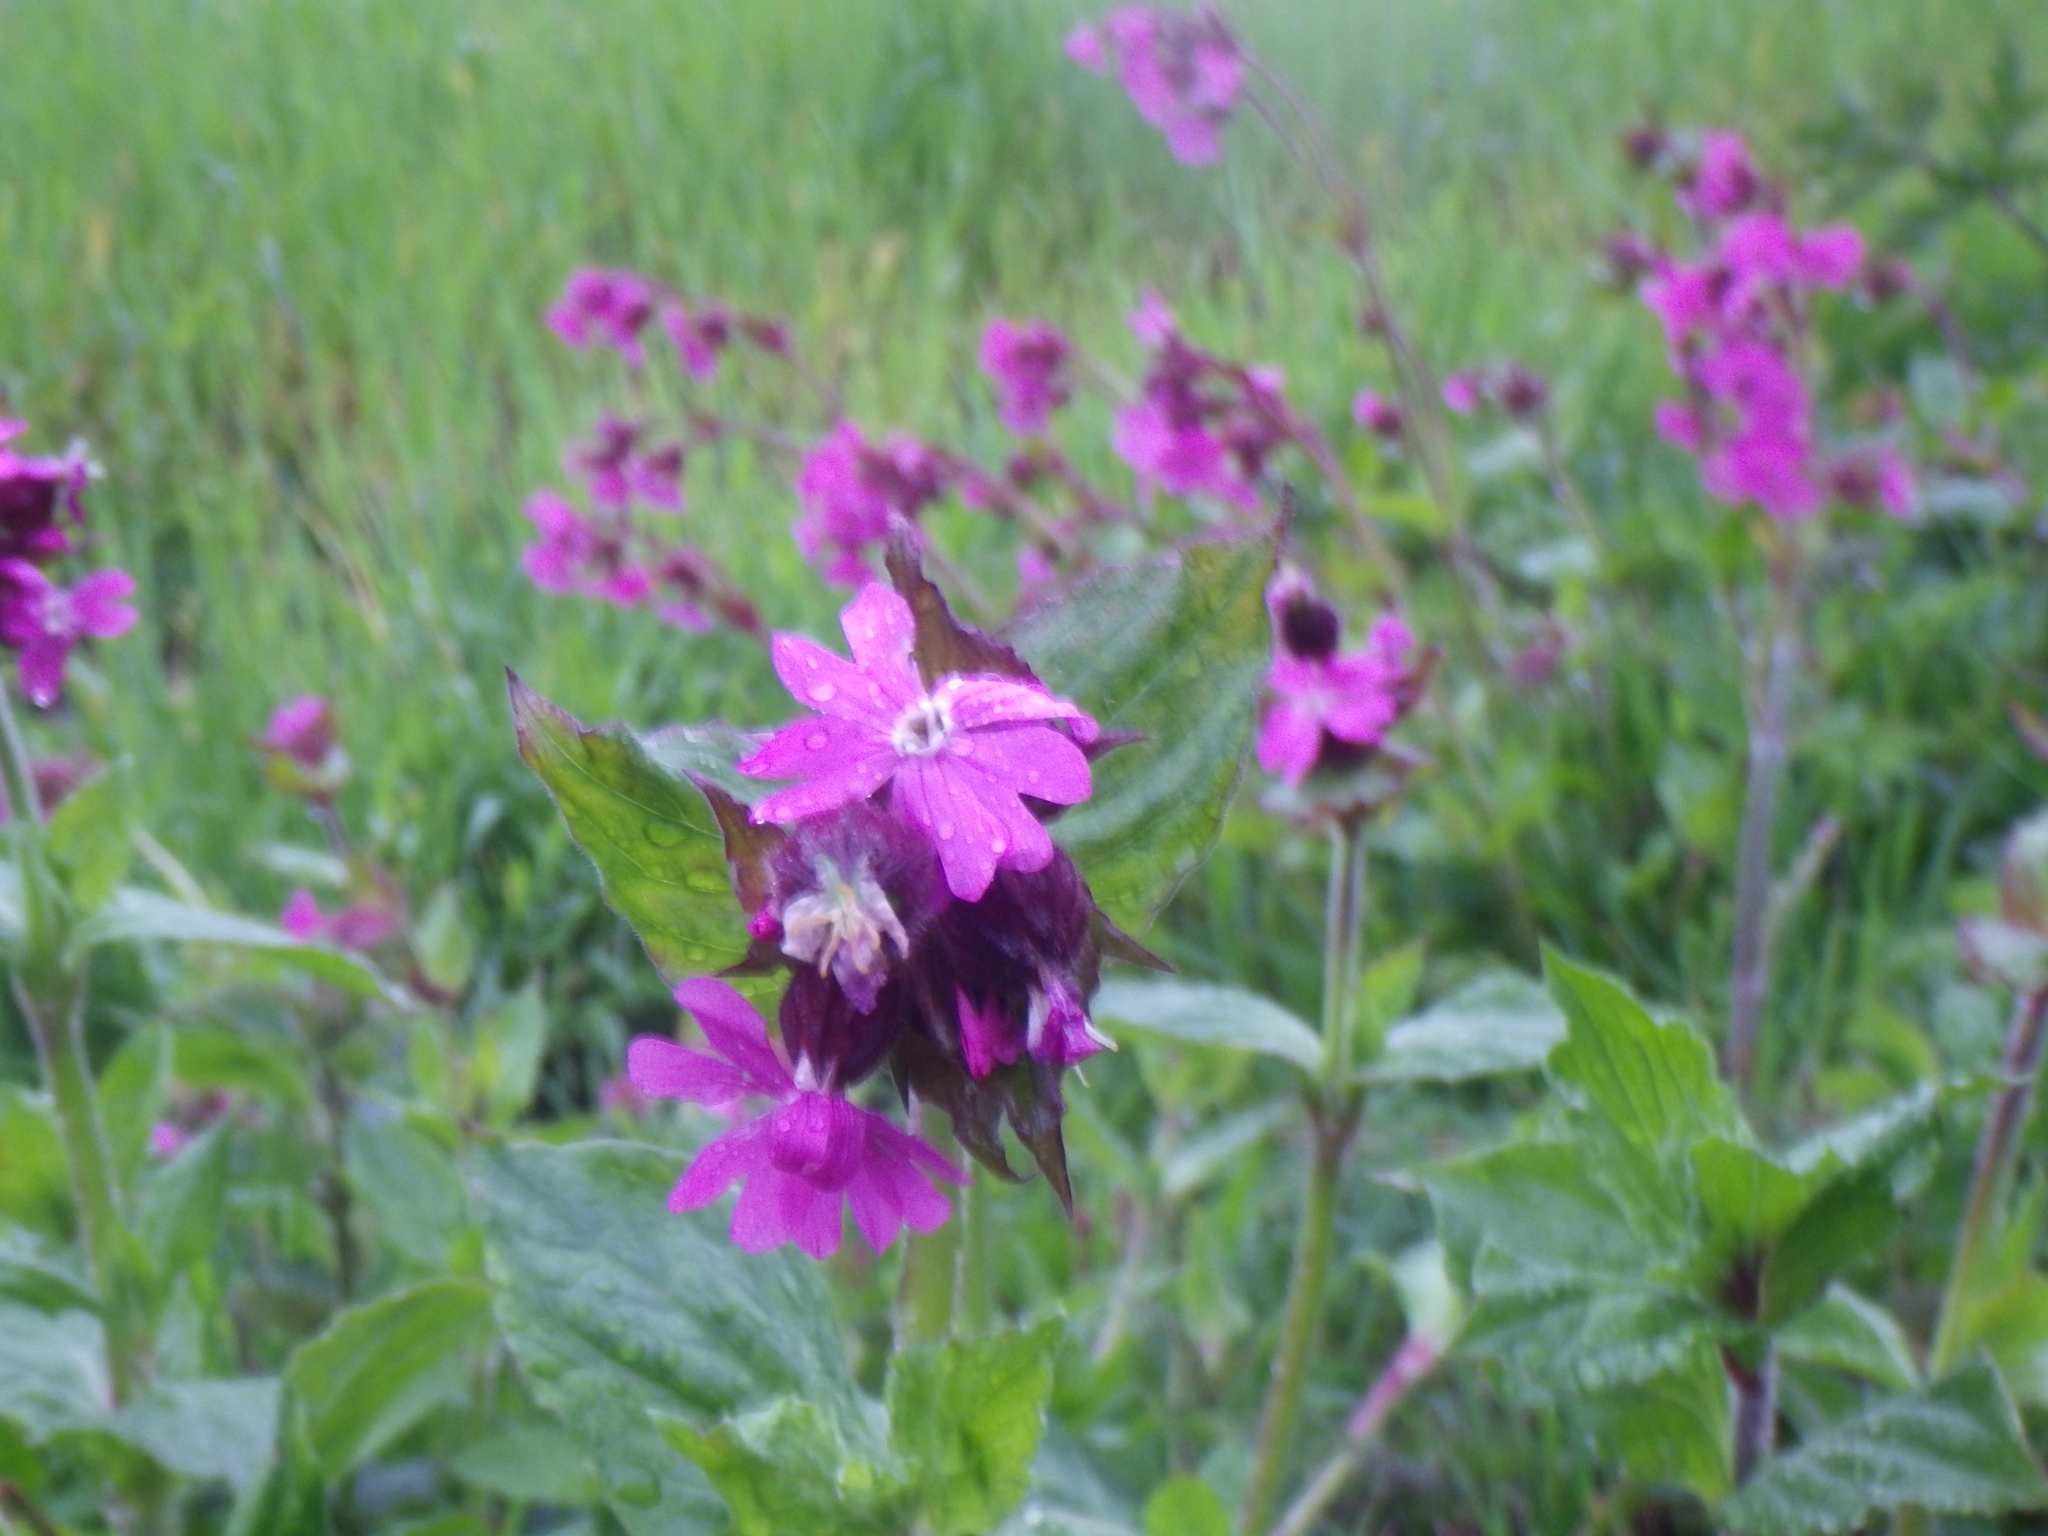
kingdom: Plantae
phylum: Tracheophyta
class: Magnoliopsida
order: Caryophyllales
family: Caryophyllaceae
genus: Silene
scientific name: Silene dioica
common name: Red campion
